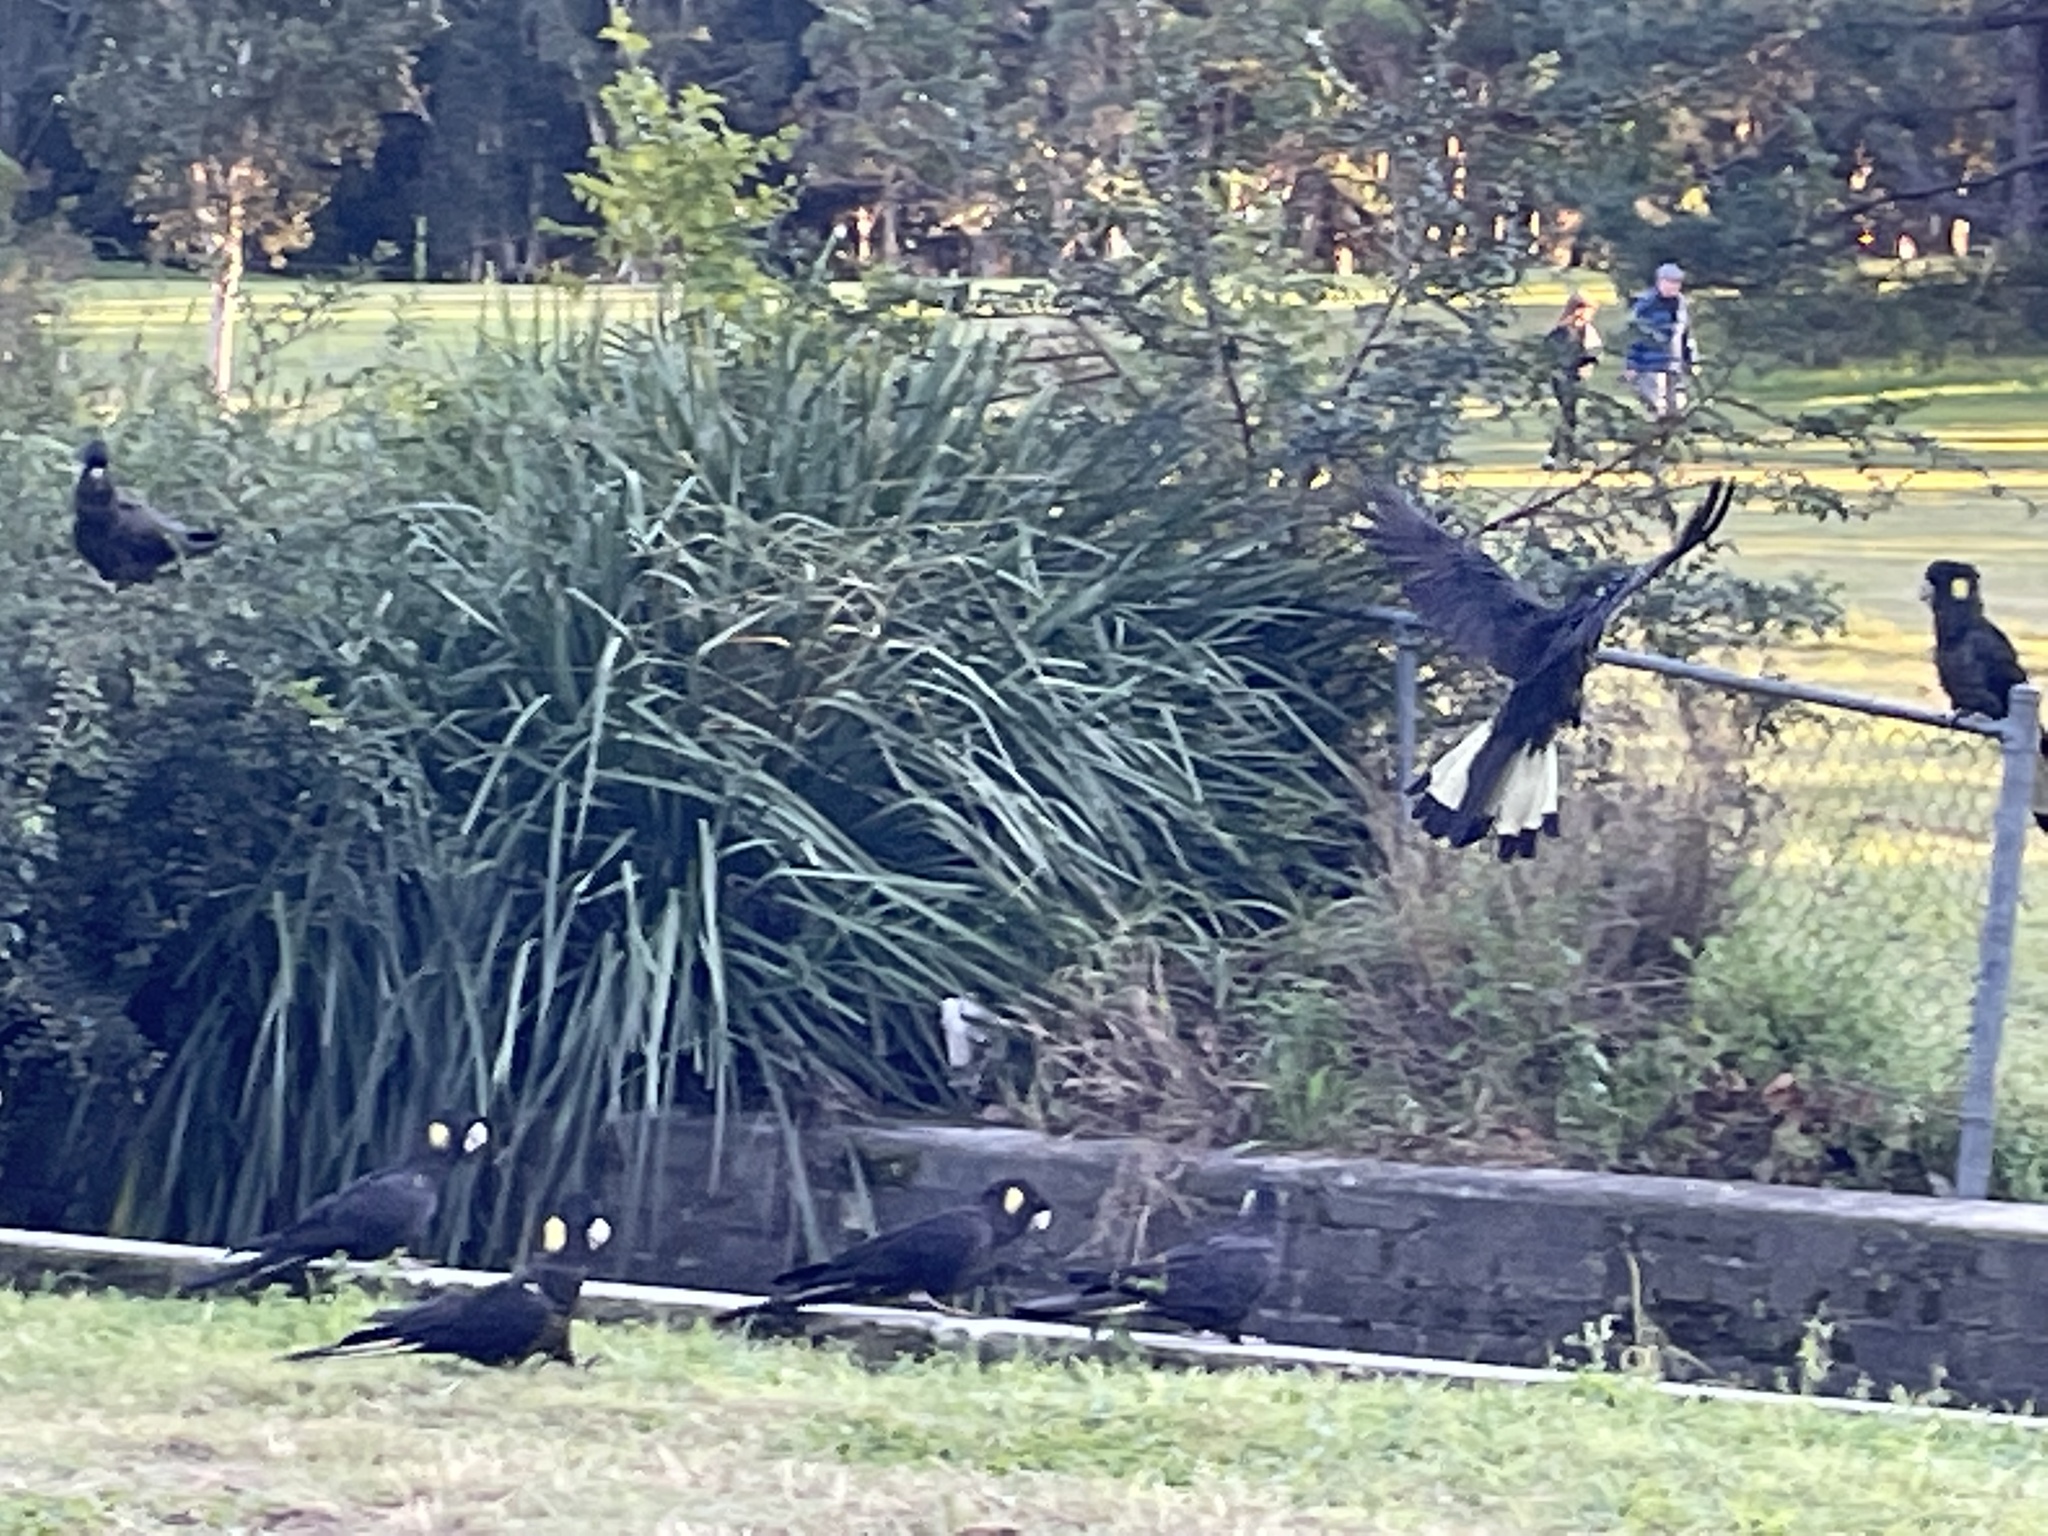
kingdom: Animalia
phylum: Chordata
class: Aves
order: Psittaciformes
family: Cacatuidae
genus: Zanda
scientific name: Zanda funerea
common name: Yellow-tailed black-cockatoo
